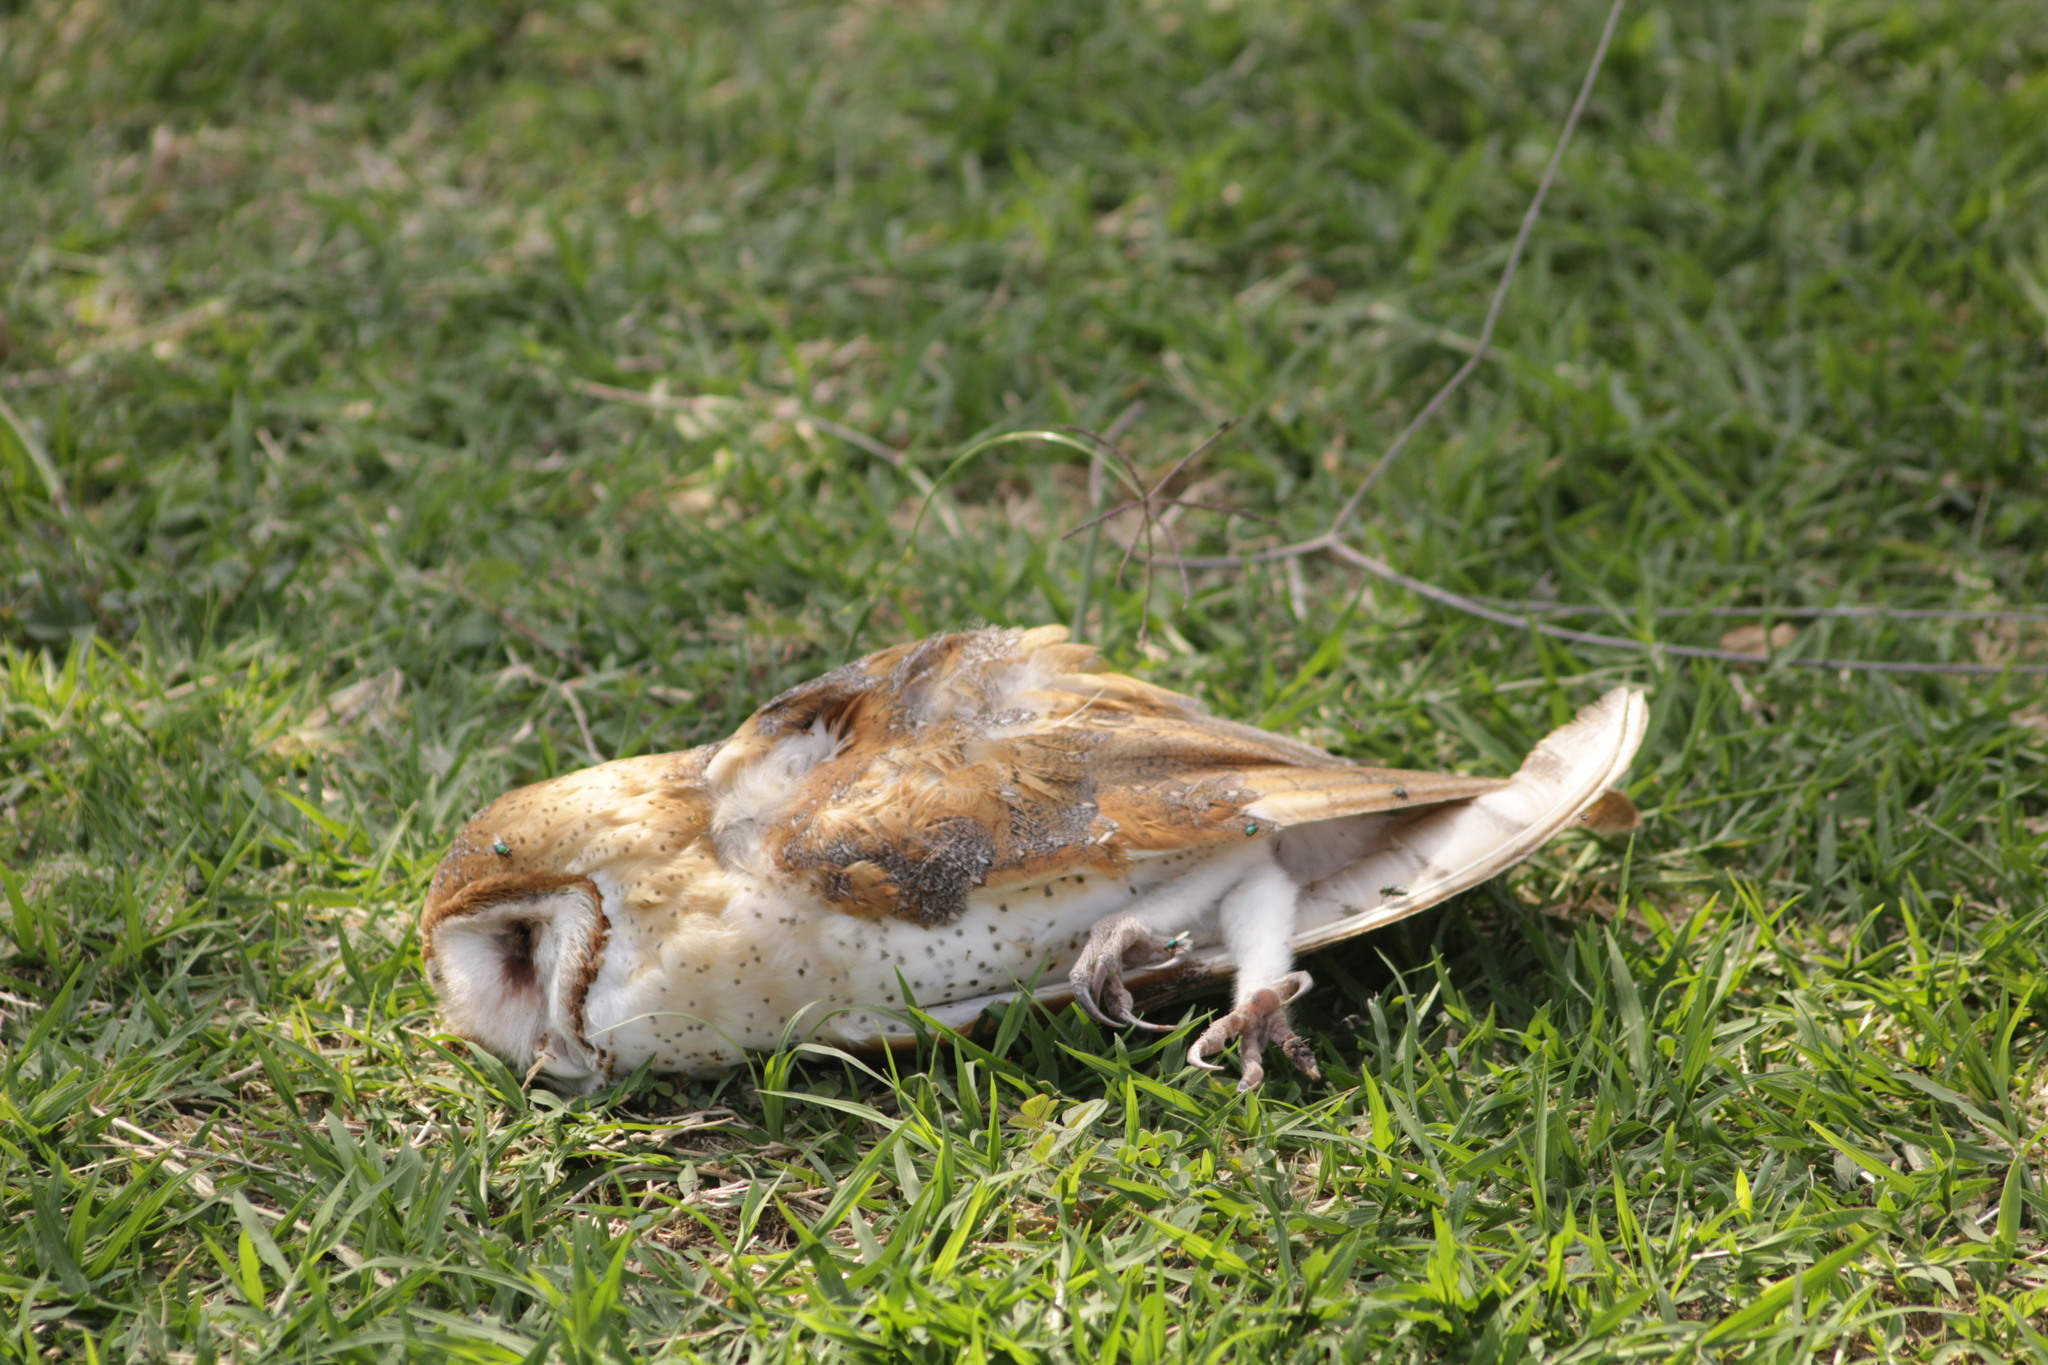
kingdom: Animalia
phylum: Chordata
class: Aves
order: Strigiformes
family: Tytonidae
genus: Tyto
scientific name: Tyto alba
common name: Barn owl
